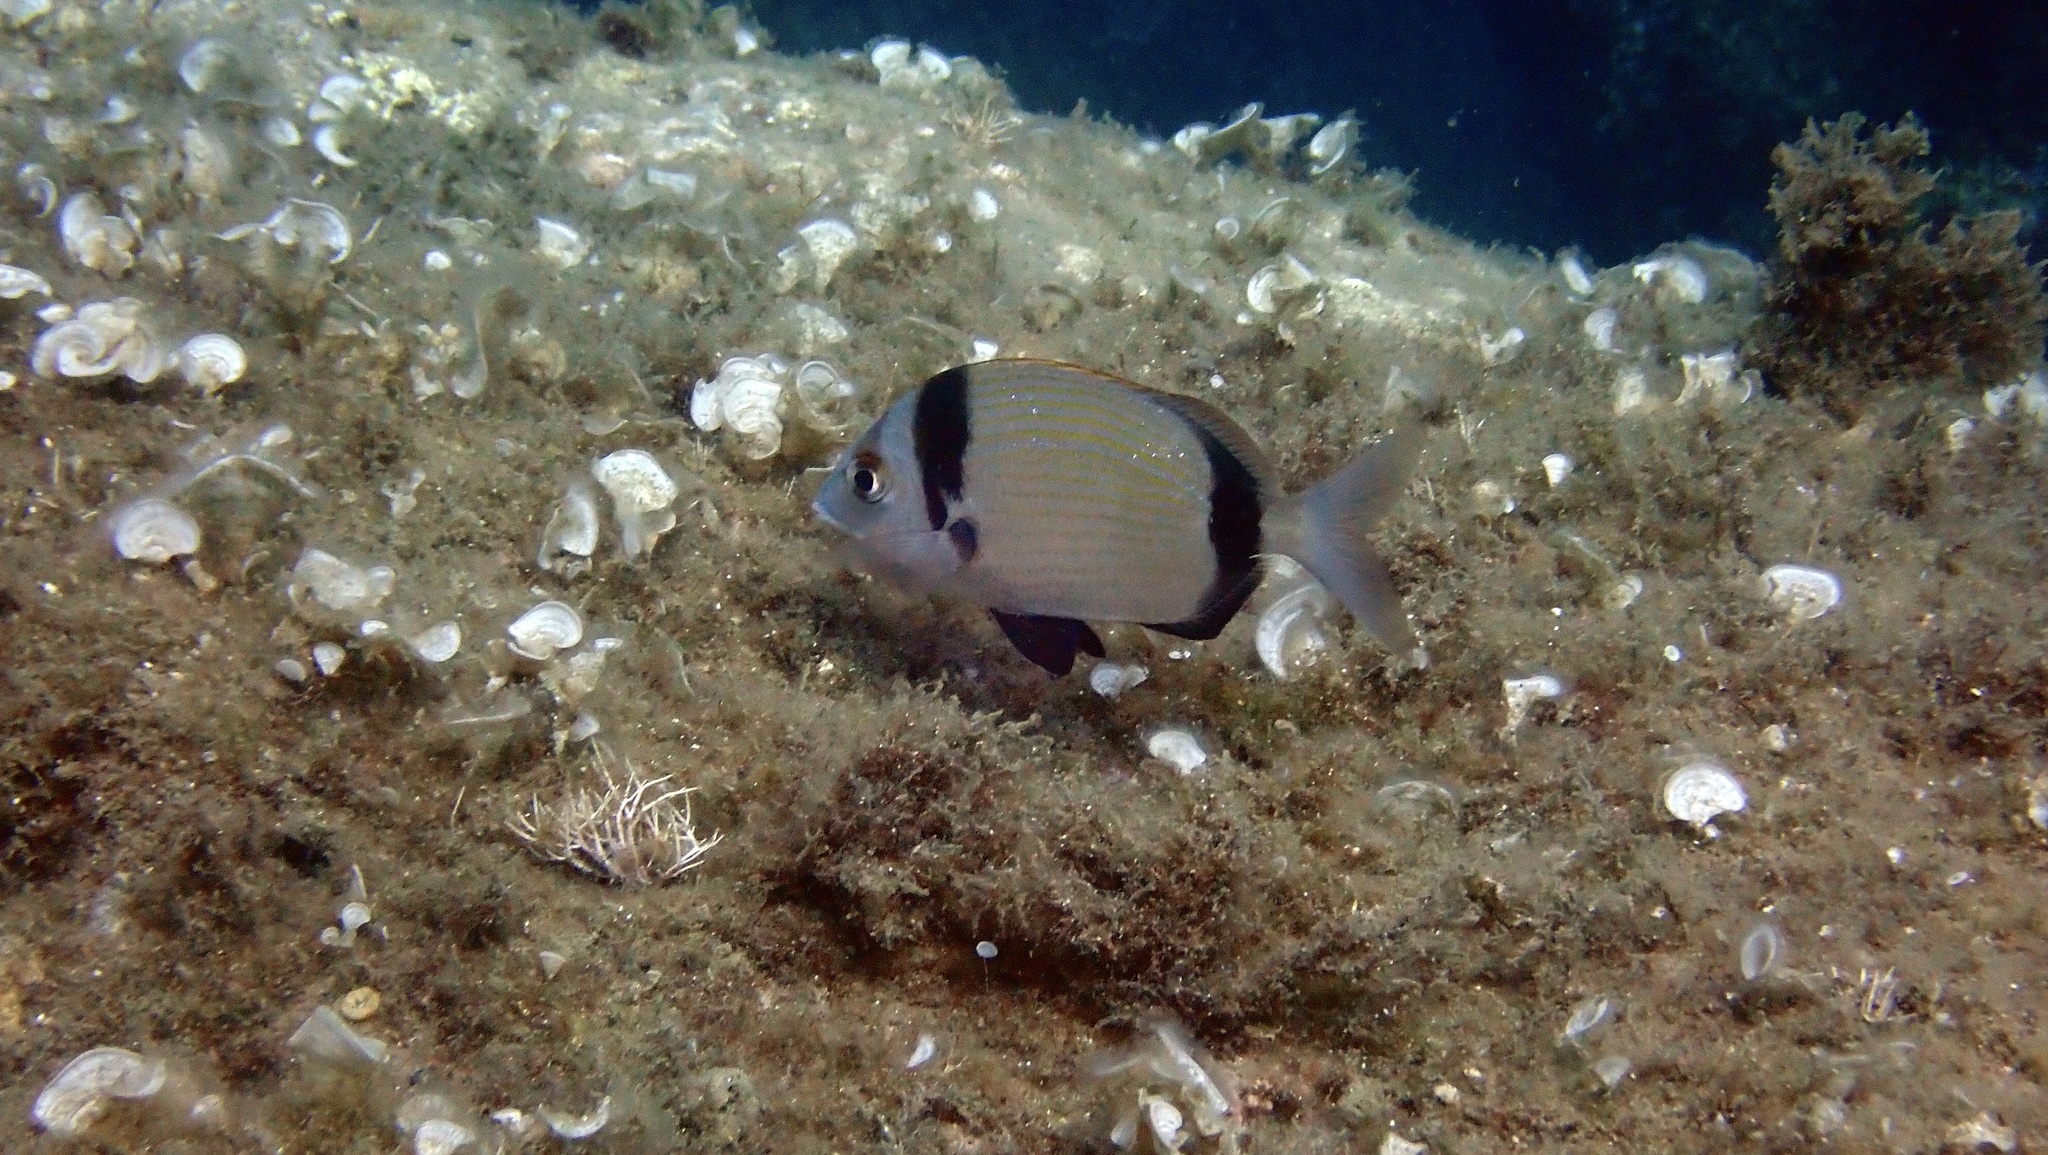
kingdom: Animalia
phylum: Chordata
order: Perciformes
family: Sparidae
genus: Diplodus
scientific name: Diplodus vulgaris
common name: Common two-banded seabream
